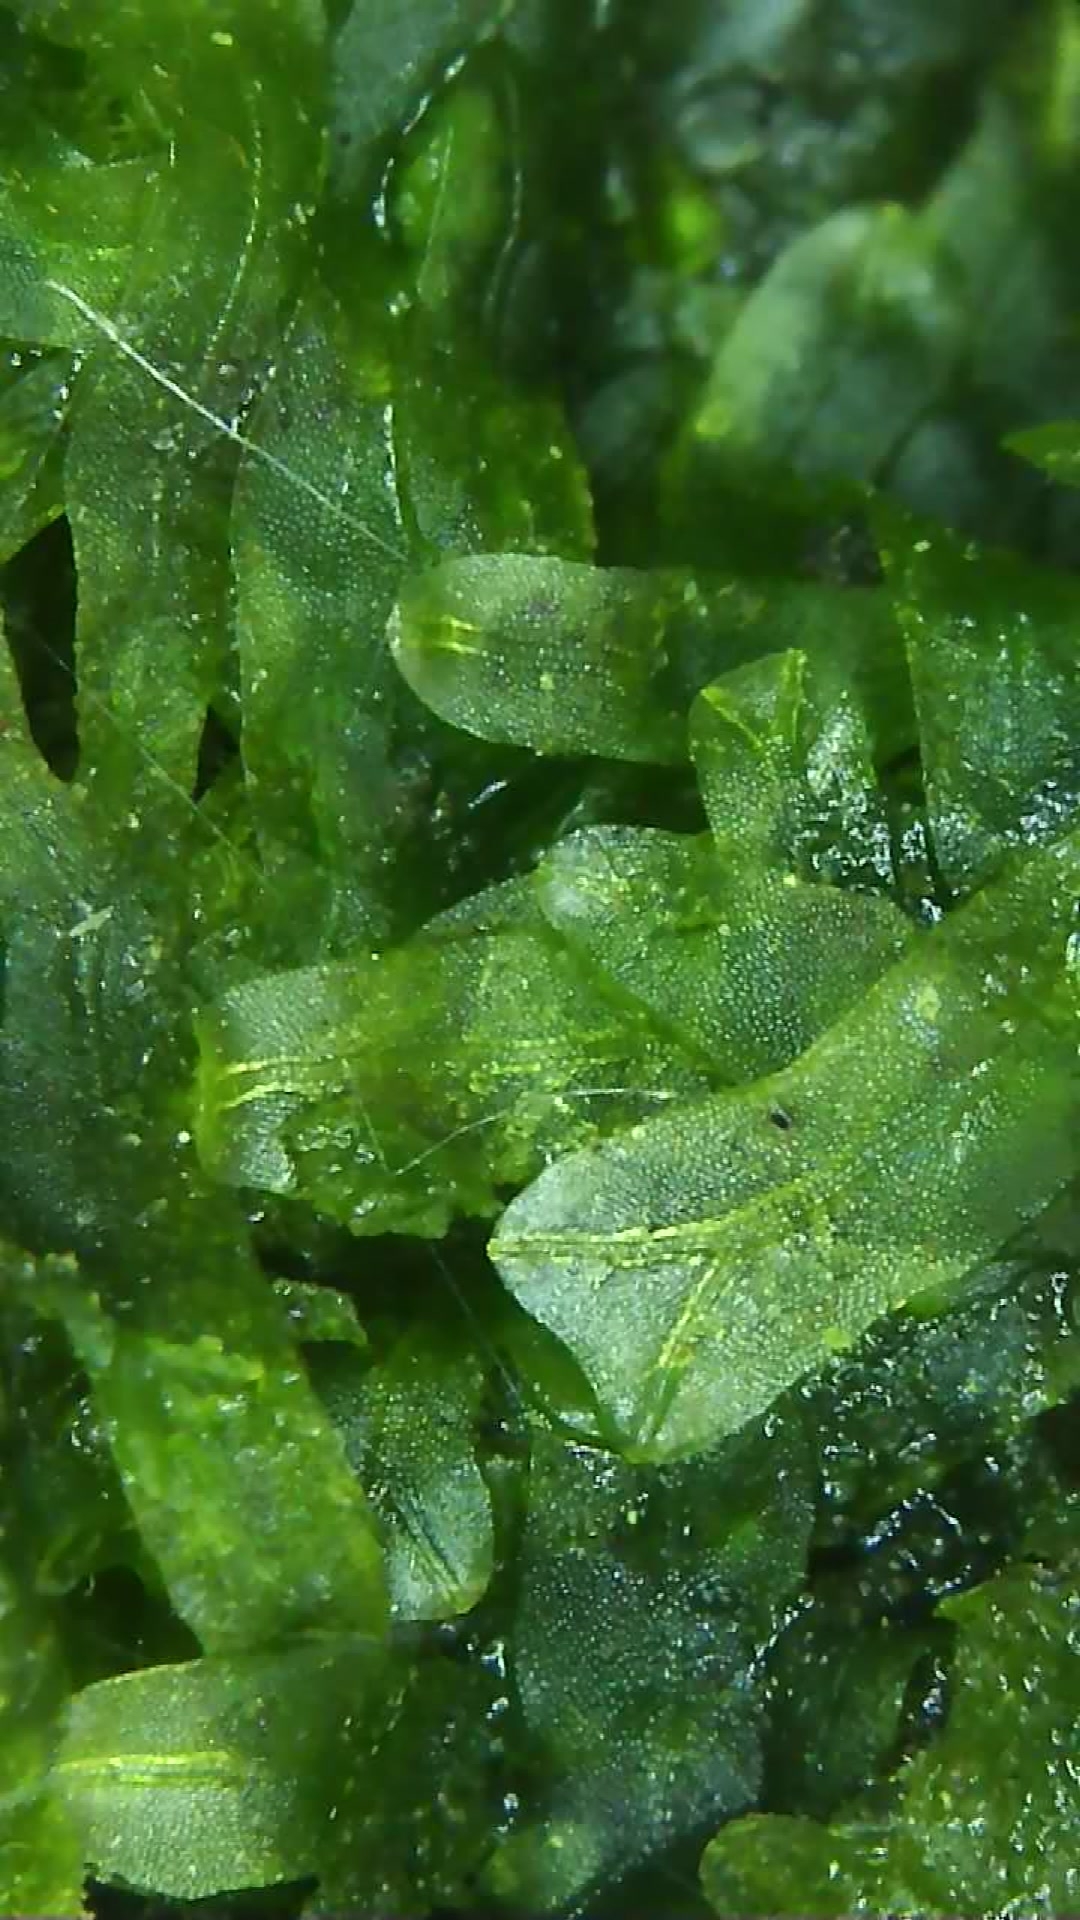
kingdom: Plantae
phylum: Marchantiophyta
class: Jungermanniopsida
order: Metzgeriales
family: Metzgeriaceae
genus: Metzgeria
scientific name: Metzgeria furcata
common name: Forked veilwort
